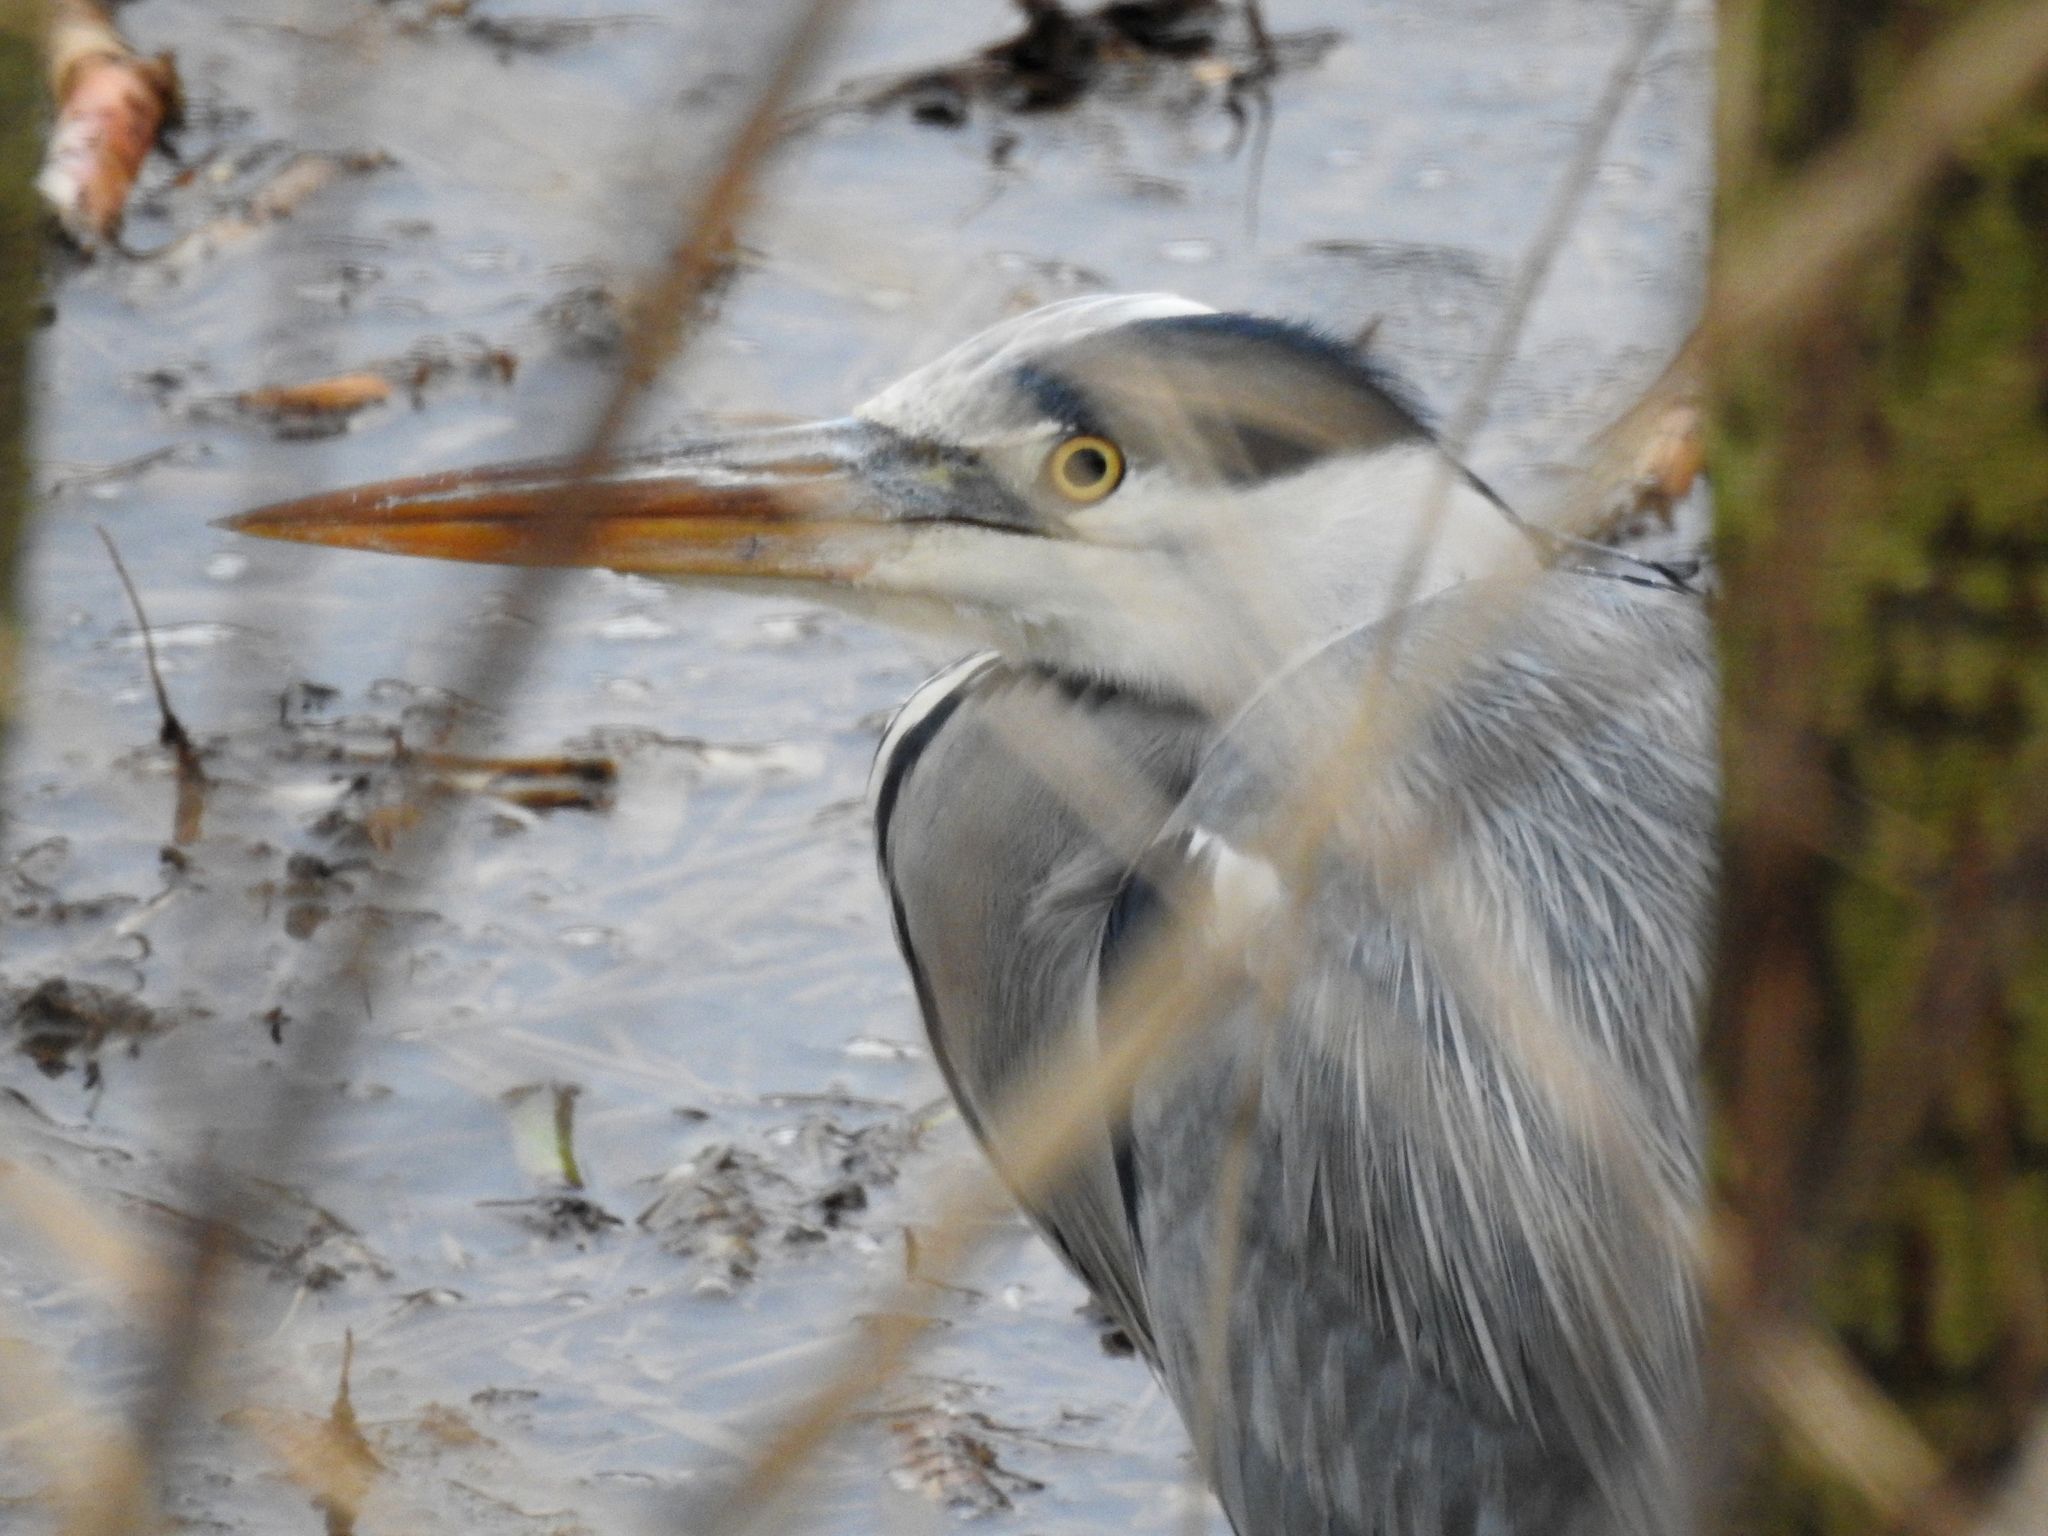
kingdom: Animalia
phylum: Chordata
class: Aves
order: Pelecaniformes
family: Ardeidae
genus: Ardea
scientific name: Ardea cinerea
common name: Grey heron
